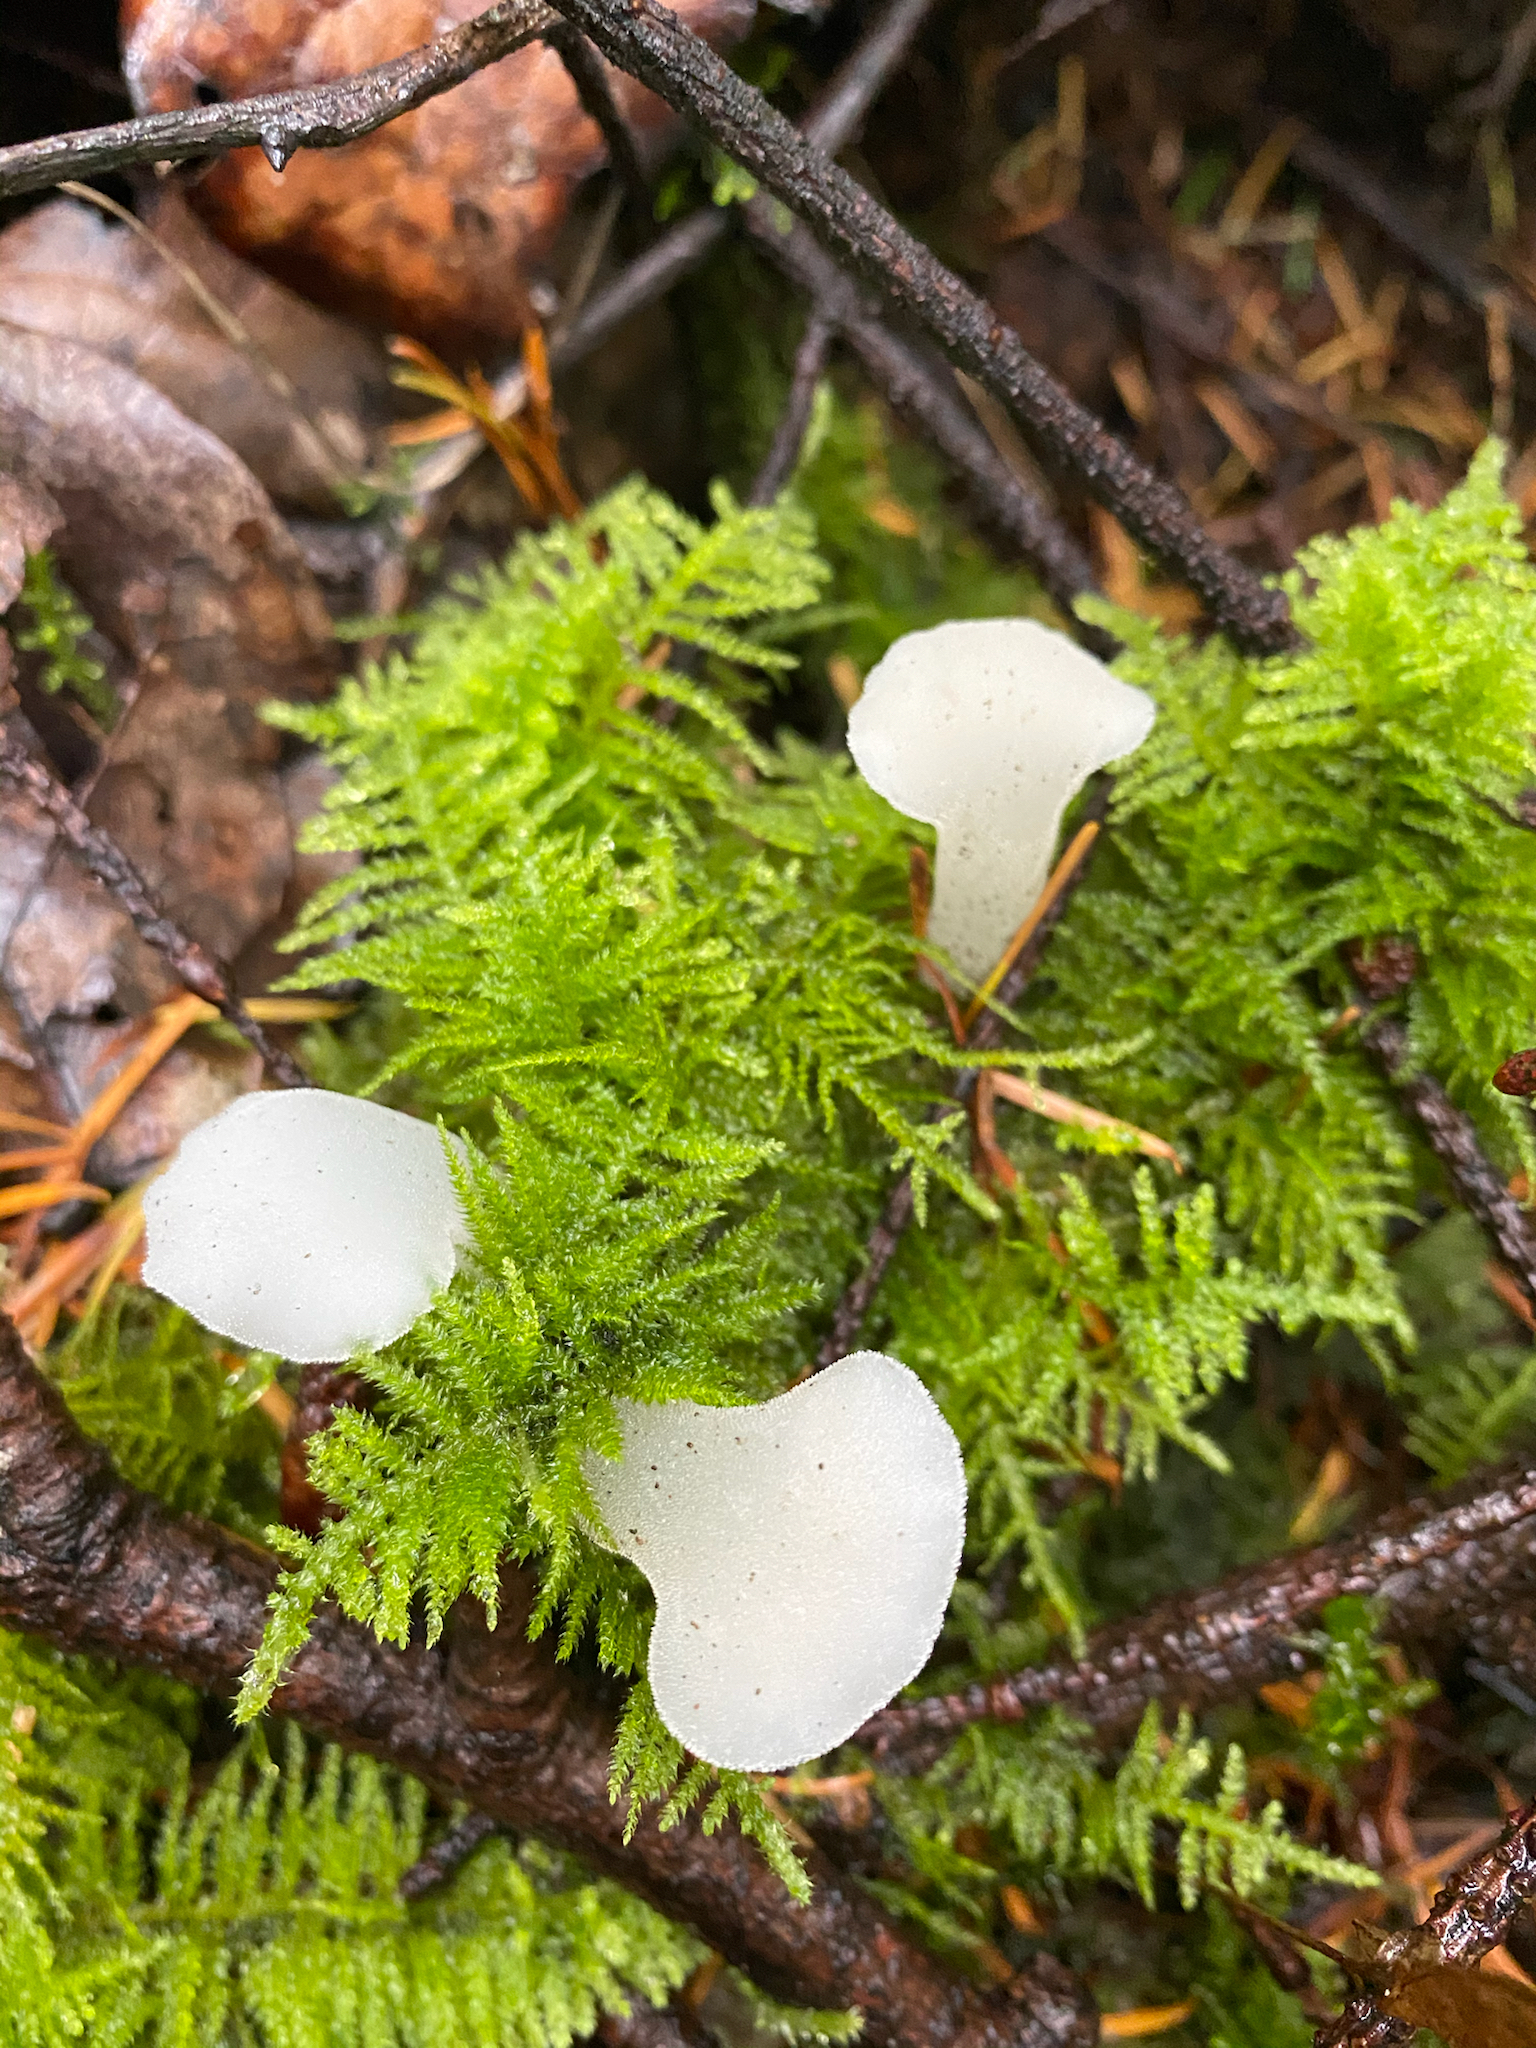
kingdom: Fungi
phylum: Basidiomycota
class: Agaricomycetes
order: Auriculariales
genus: Pseudohydnum
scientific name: Pseudohydnum gelatinosum
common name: Jelly tongue
